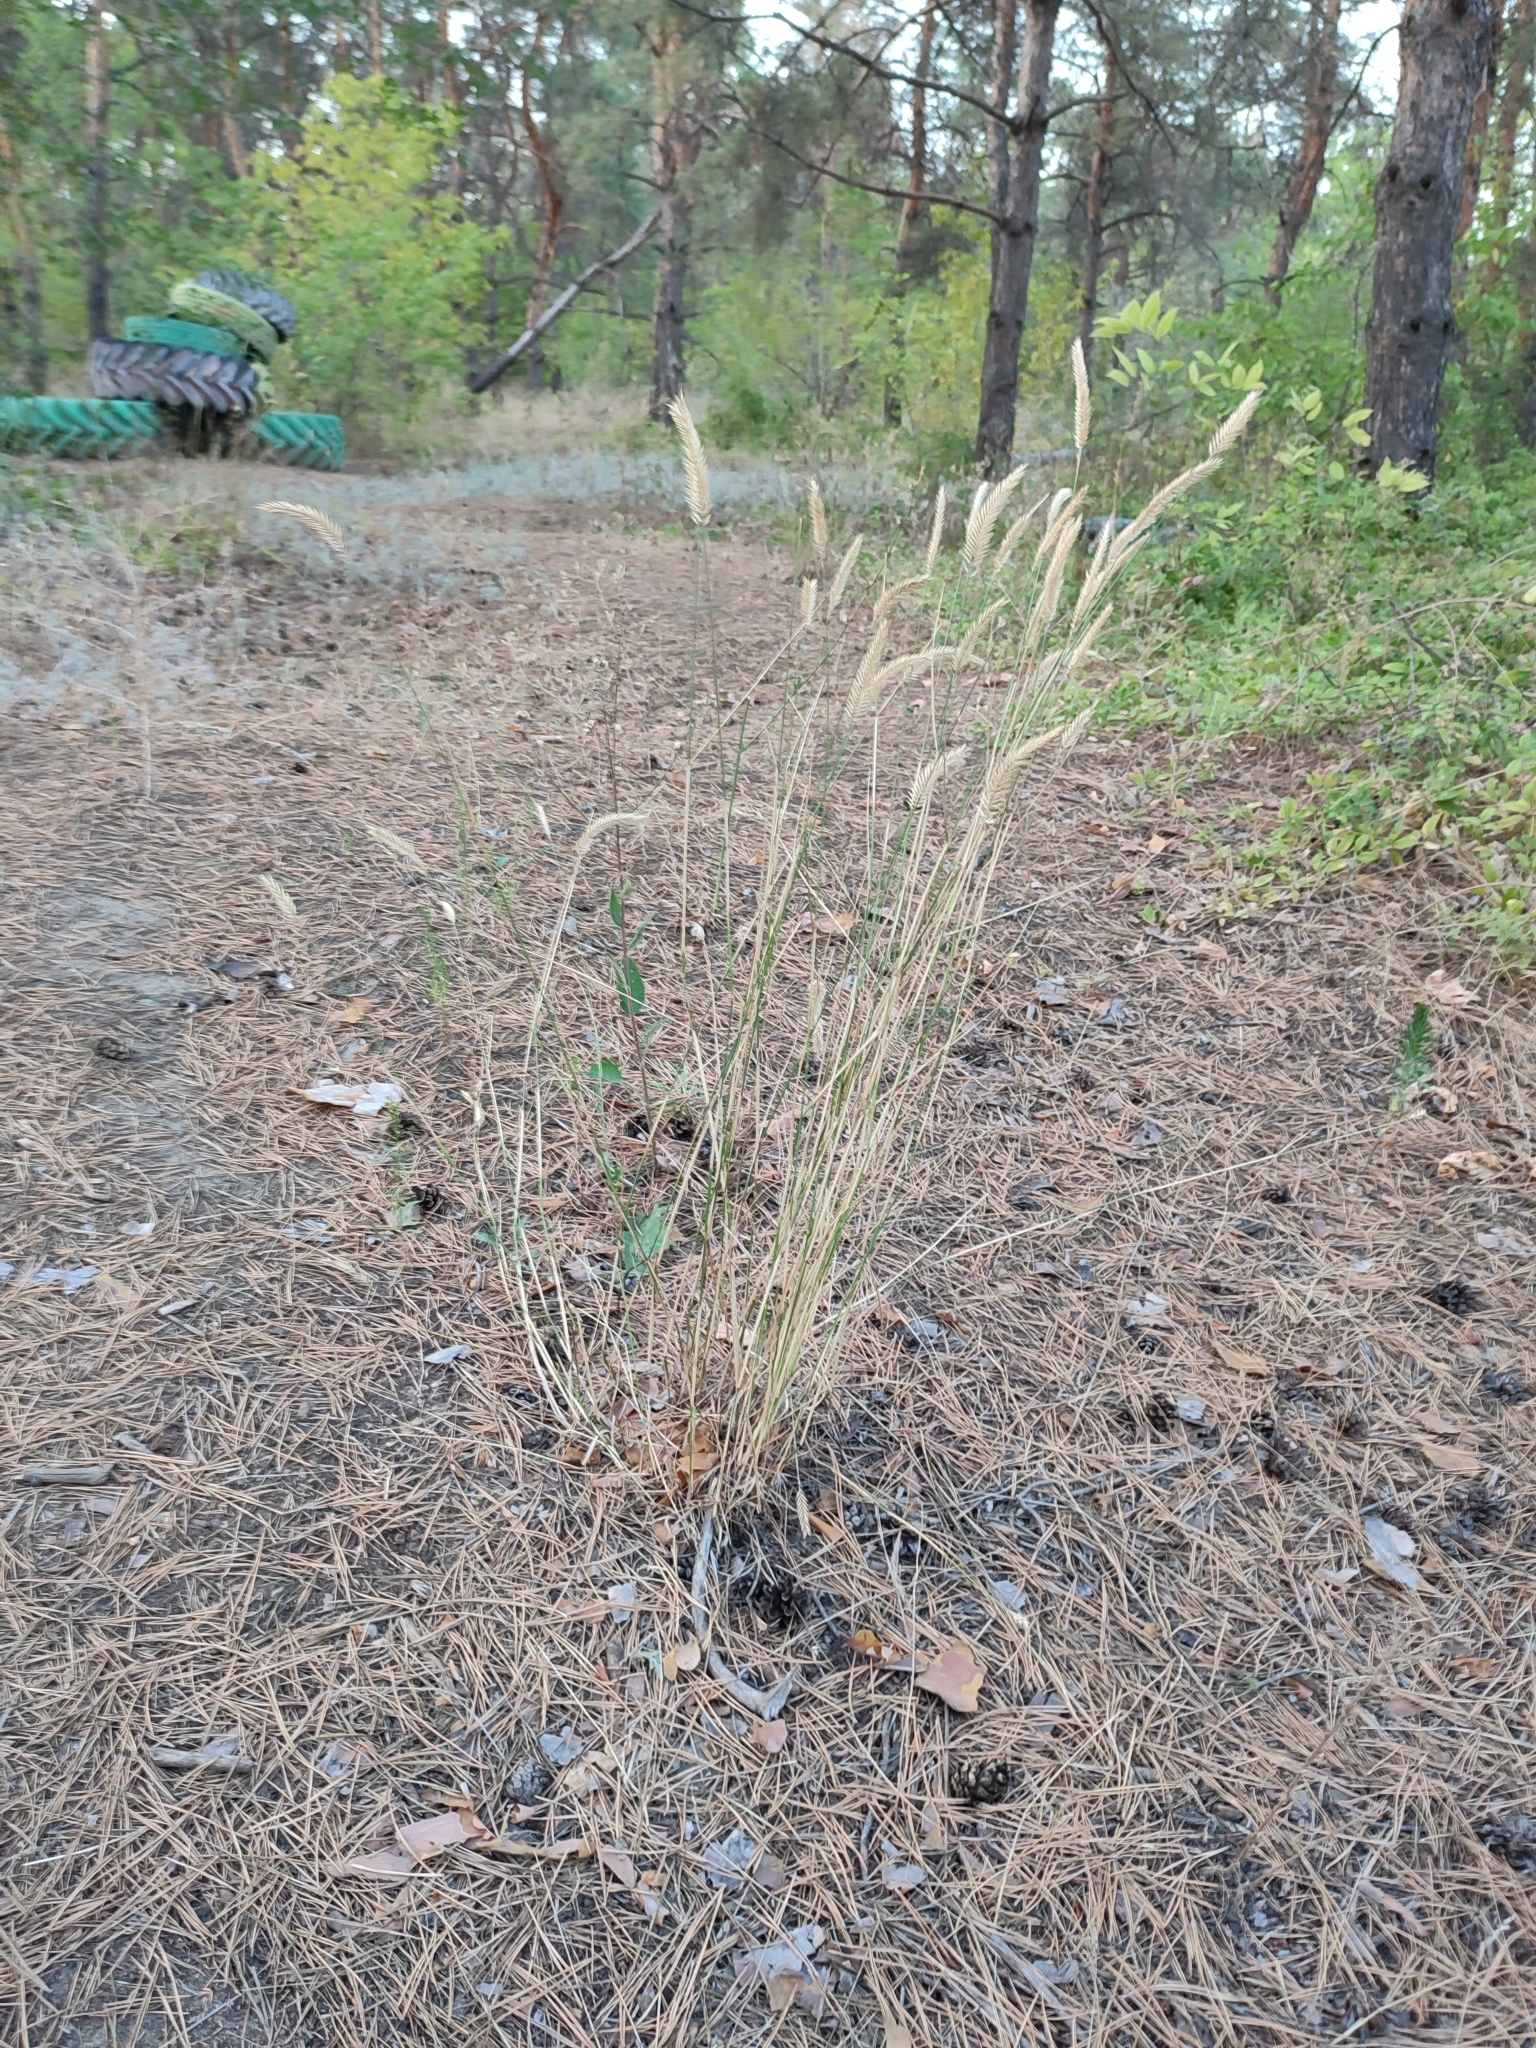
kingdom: Plantae
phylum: Tracheophyta
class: Liliopsida
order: Poales
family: Poaceae
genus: Agropyron
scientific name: Agropyron cristatum
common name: Crested wheatgrass
